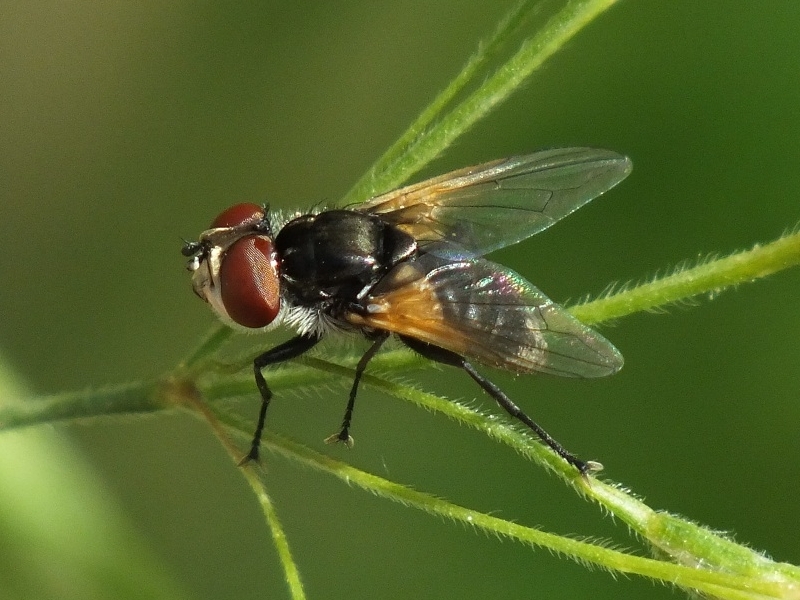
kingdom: Animalia
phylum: Arthropoda
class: Insecta
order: Diptera
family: Tachinidae
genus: Elomya
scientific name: Elomya lateralis
